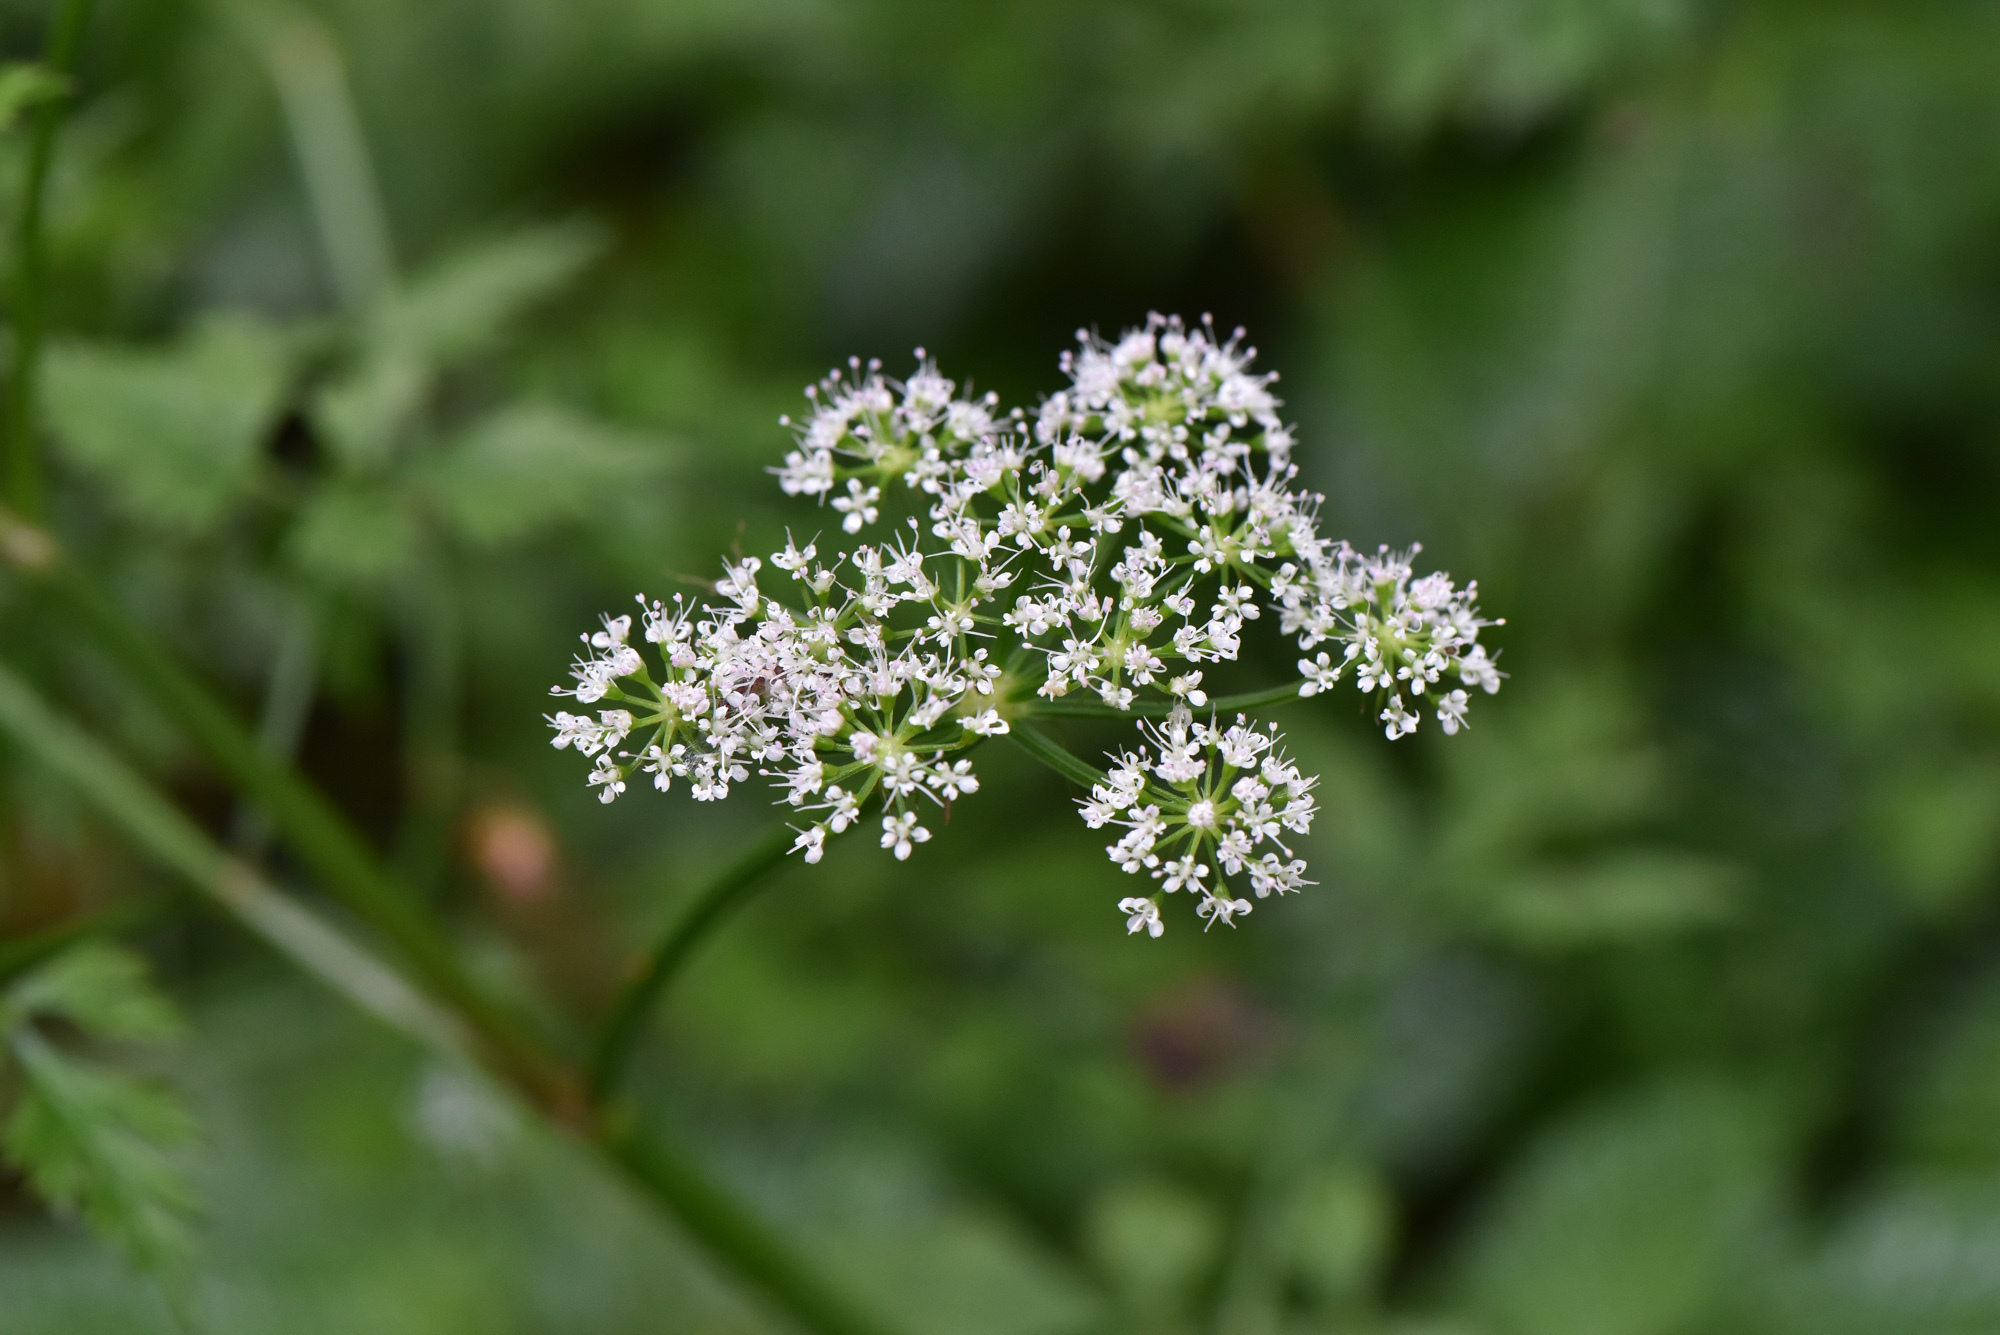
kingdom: Plantae
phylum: Tracheophyta
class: Magnoliopsida
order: Apiales
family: Apiaceae
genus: Oenanthe
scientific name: Oenanthe javanica
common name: Java water-dropwort
